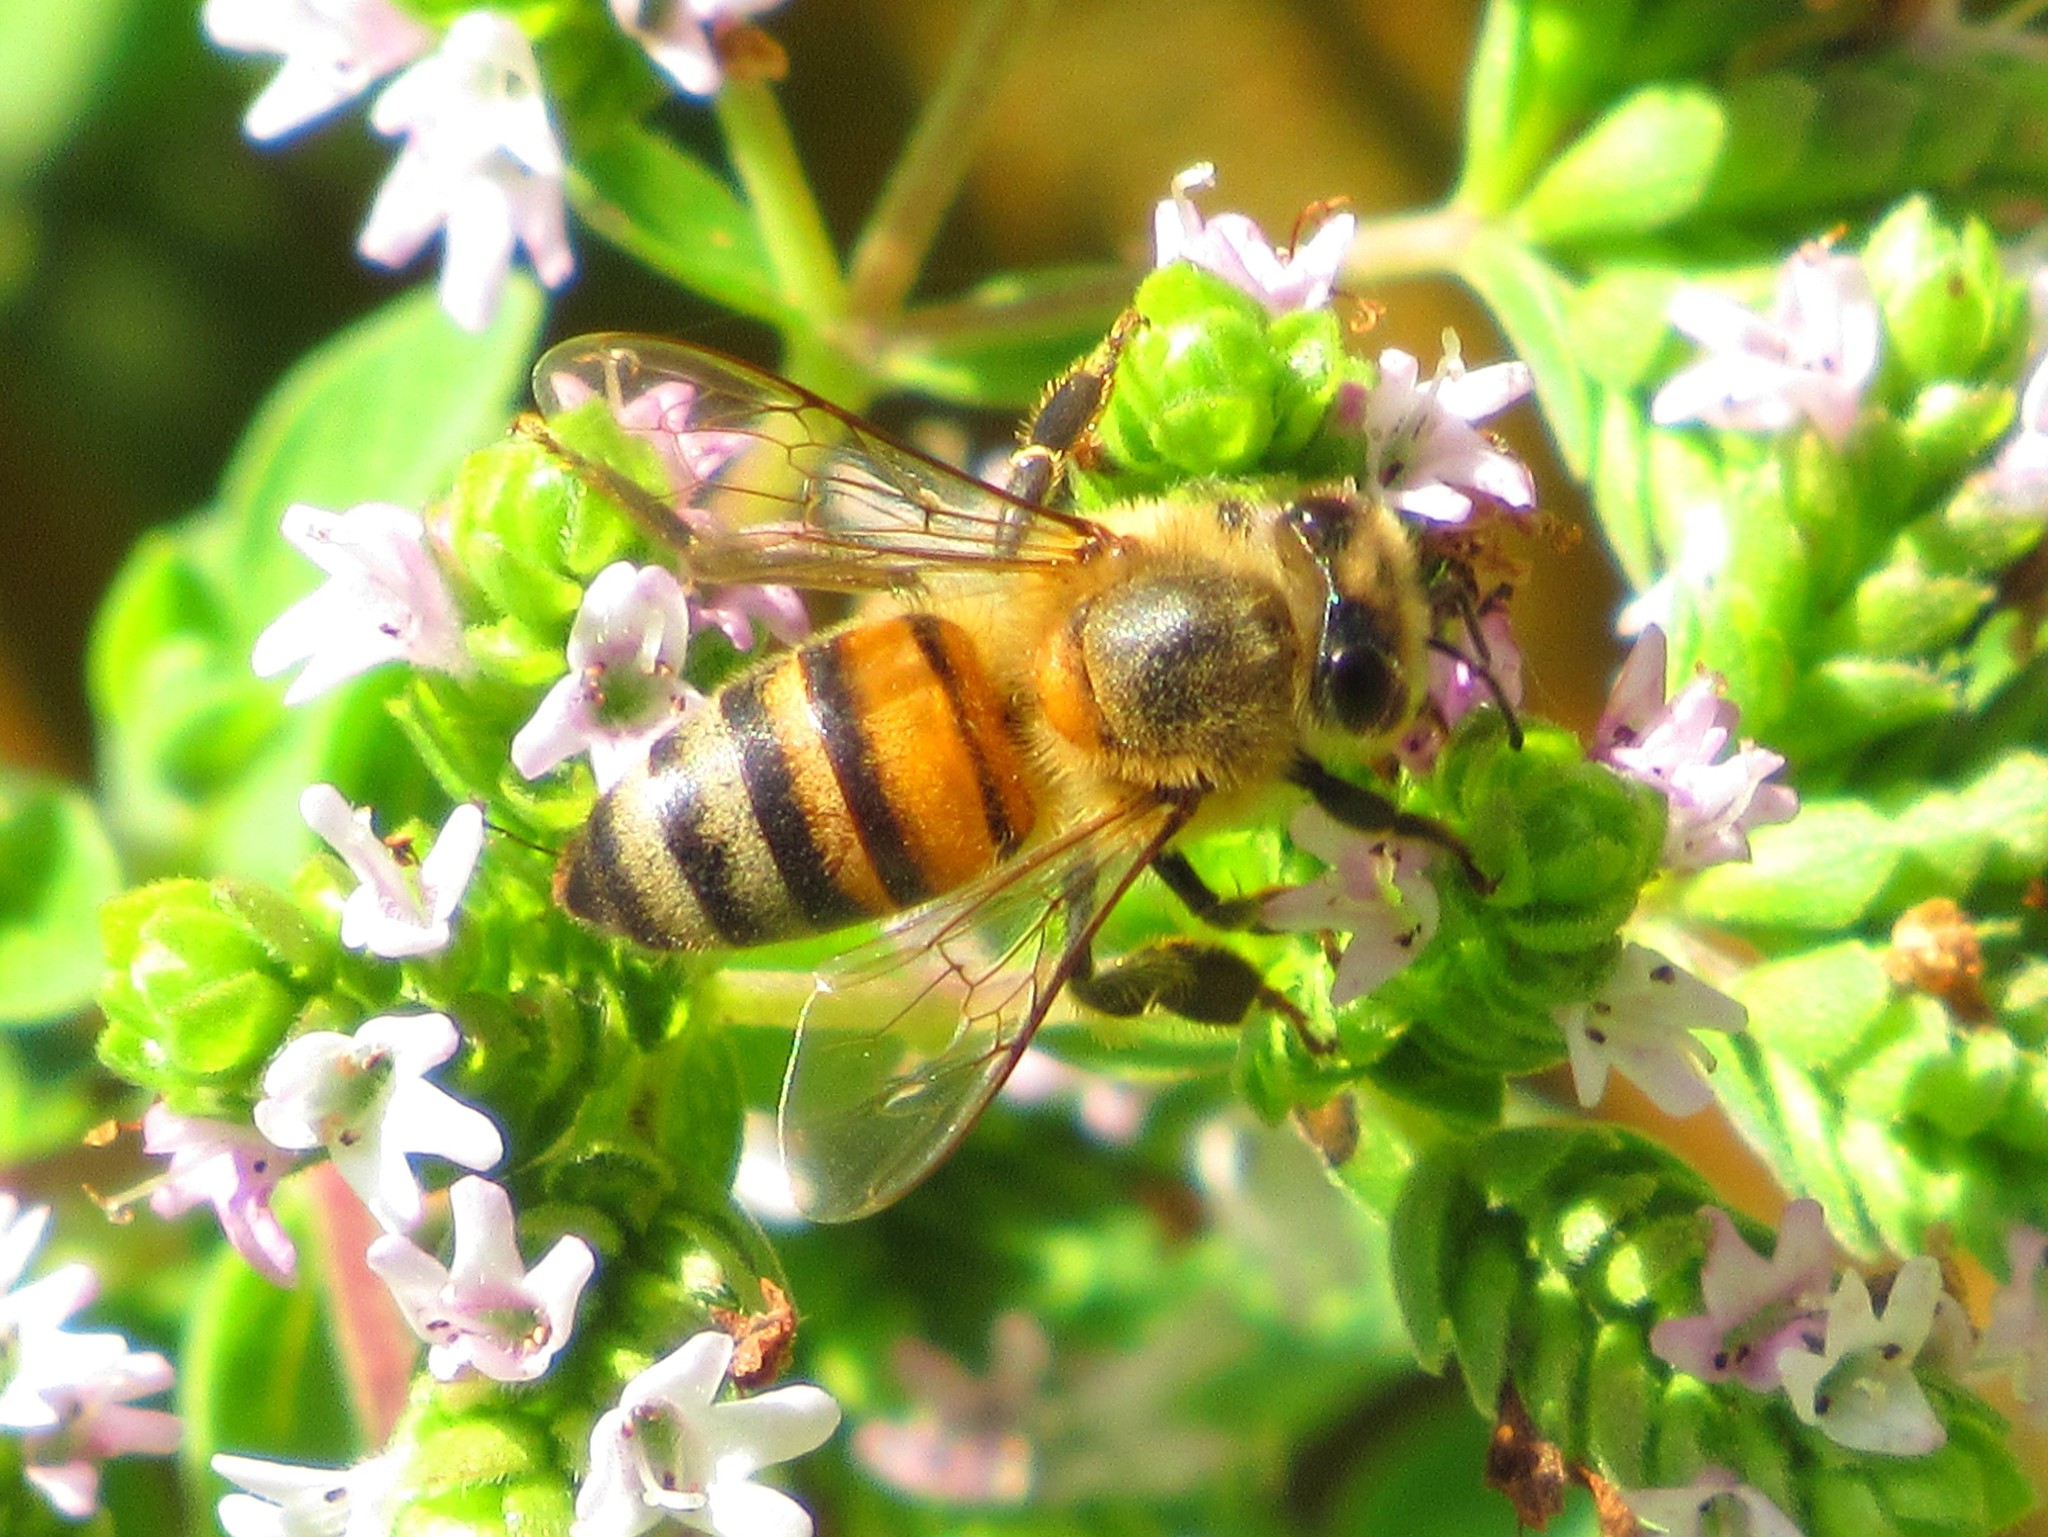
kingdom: Animalia
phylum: Arthropoda
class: Insecta
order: Hymenoptera
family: Apidae
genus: Apis
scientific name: Apis mellifera
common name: Honey bee
